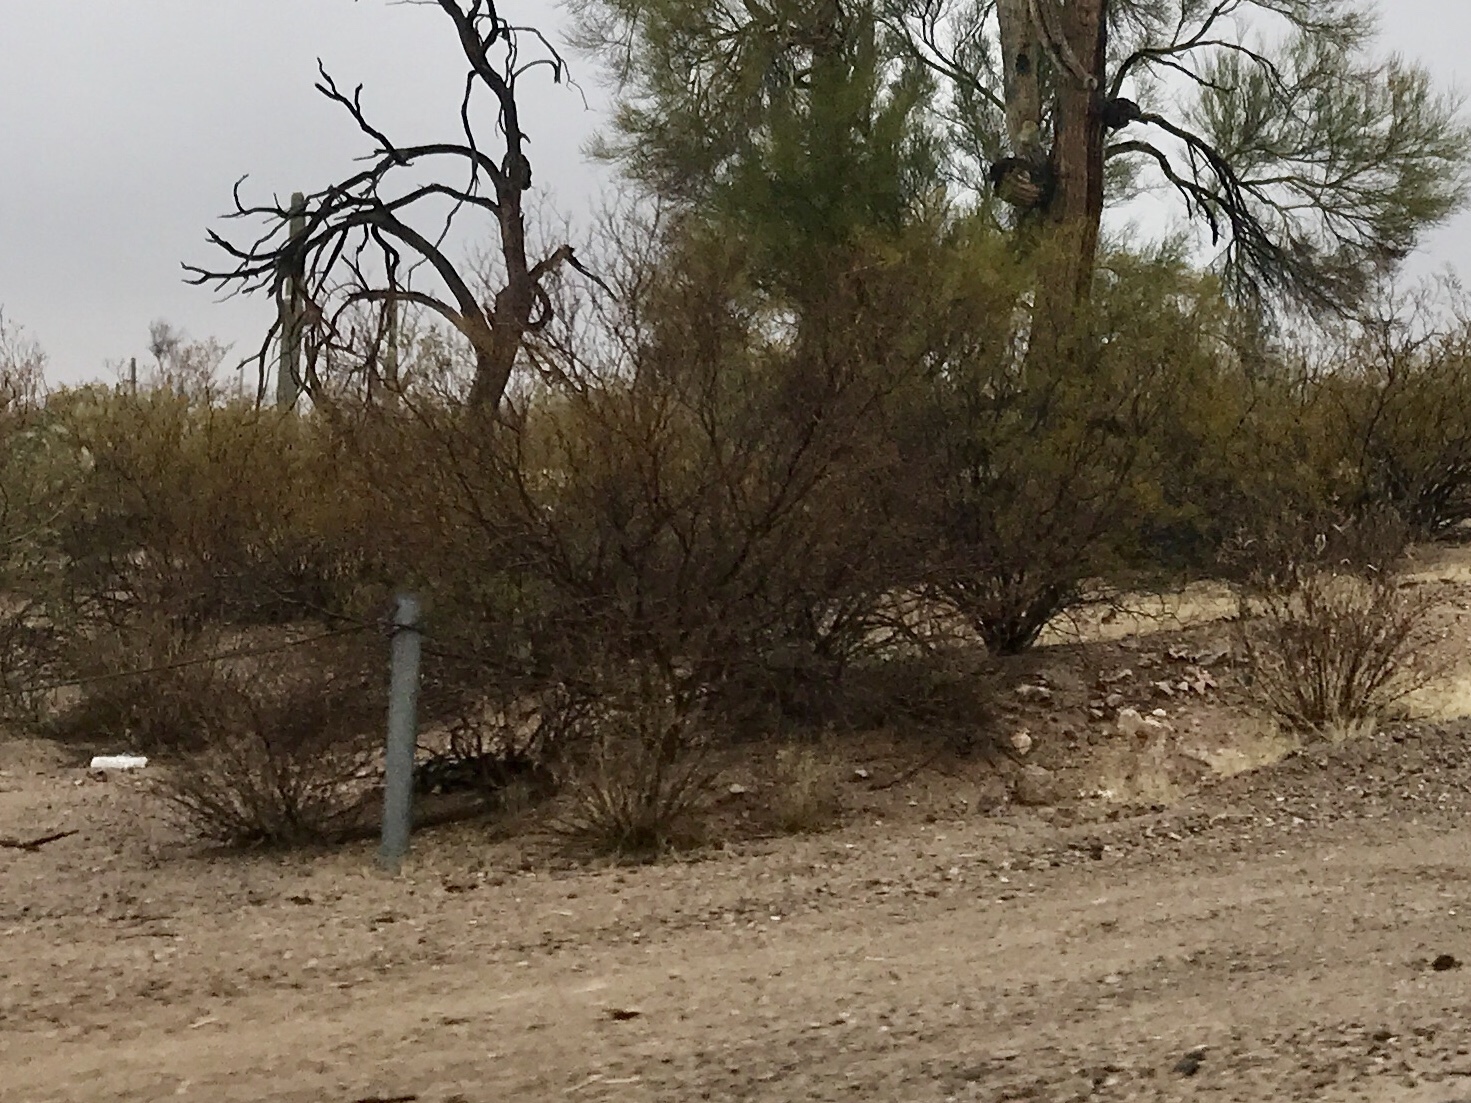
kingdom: Plantae
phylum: Tracheophyta
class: Magnoliopsida
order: Zygophyllales
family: Zygophyllaceae
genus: Larrea
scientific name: Larrea tridentata
